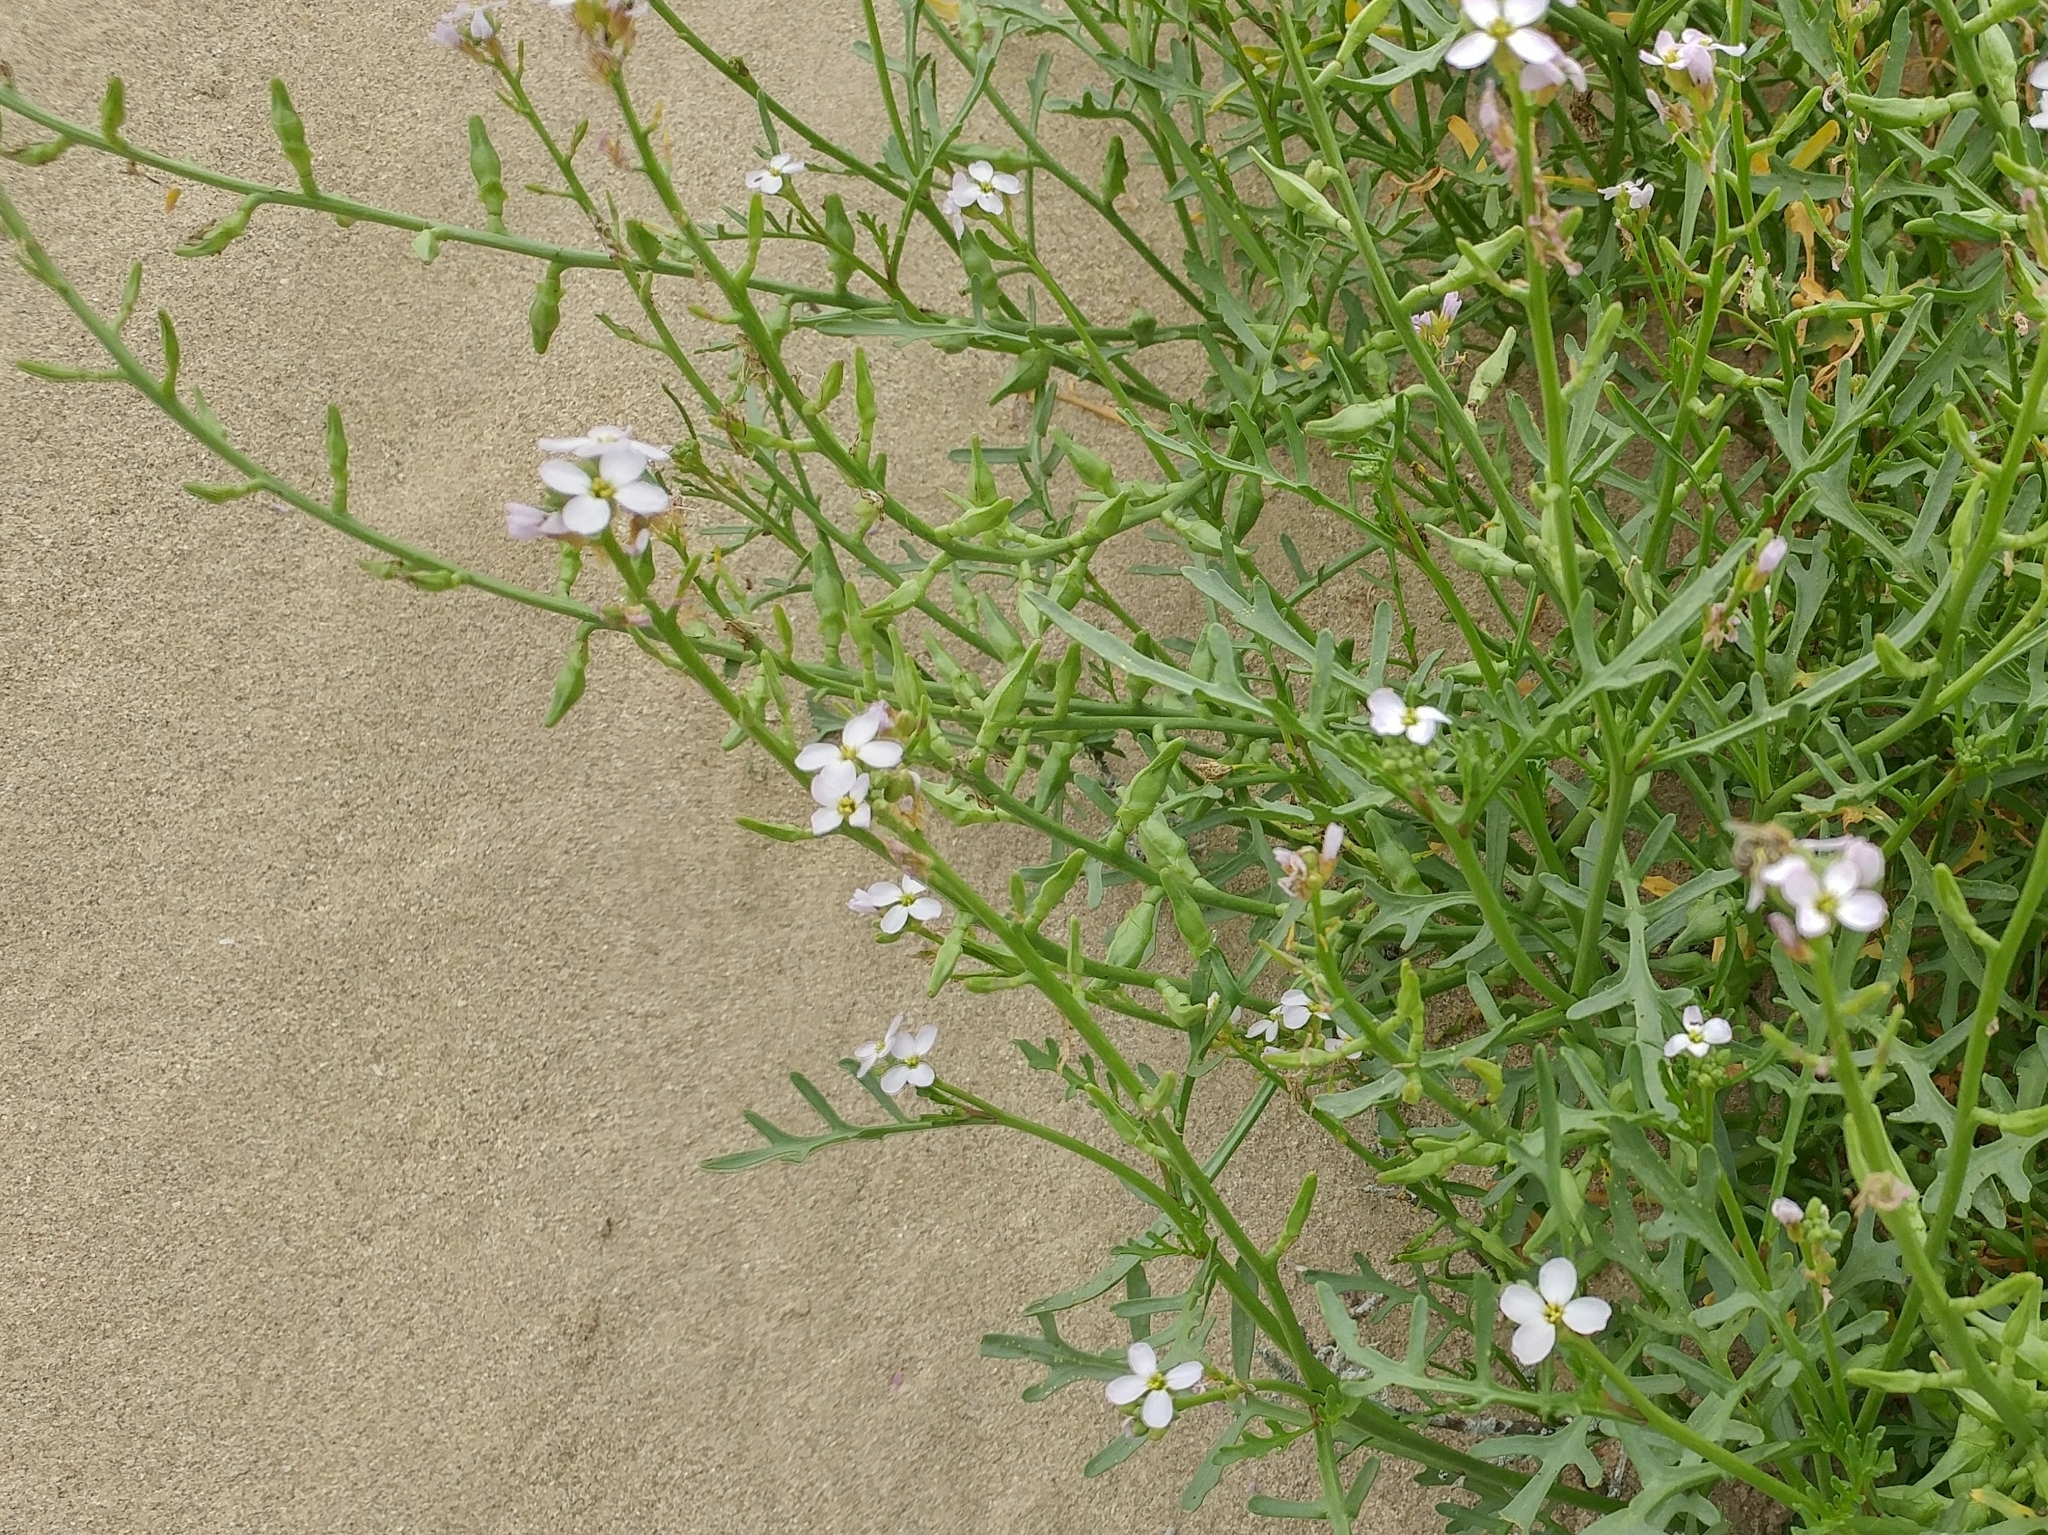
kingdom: Plantae
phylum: Tracheophyta
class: Magnoliopsida
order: Brassicales
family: Brassicaceae
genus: Cakile
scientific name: Cakile maritima
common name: Sea rocket
